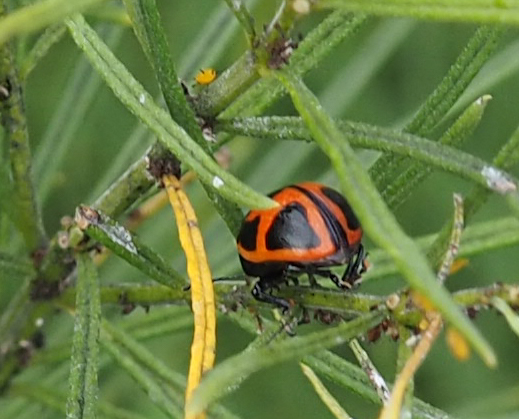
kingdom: Animalia
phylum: Arthropoda
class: Insecta
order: Coleoptera
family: Chrysomelidae
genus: Labidomera
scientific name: Labidomera clivicollis
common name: Swamp milkweed leaf beetle
